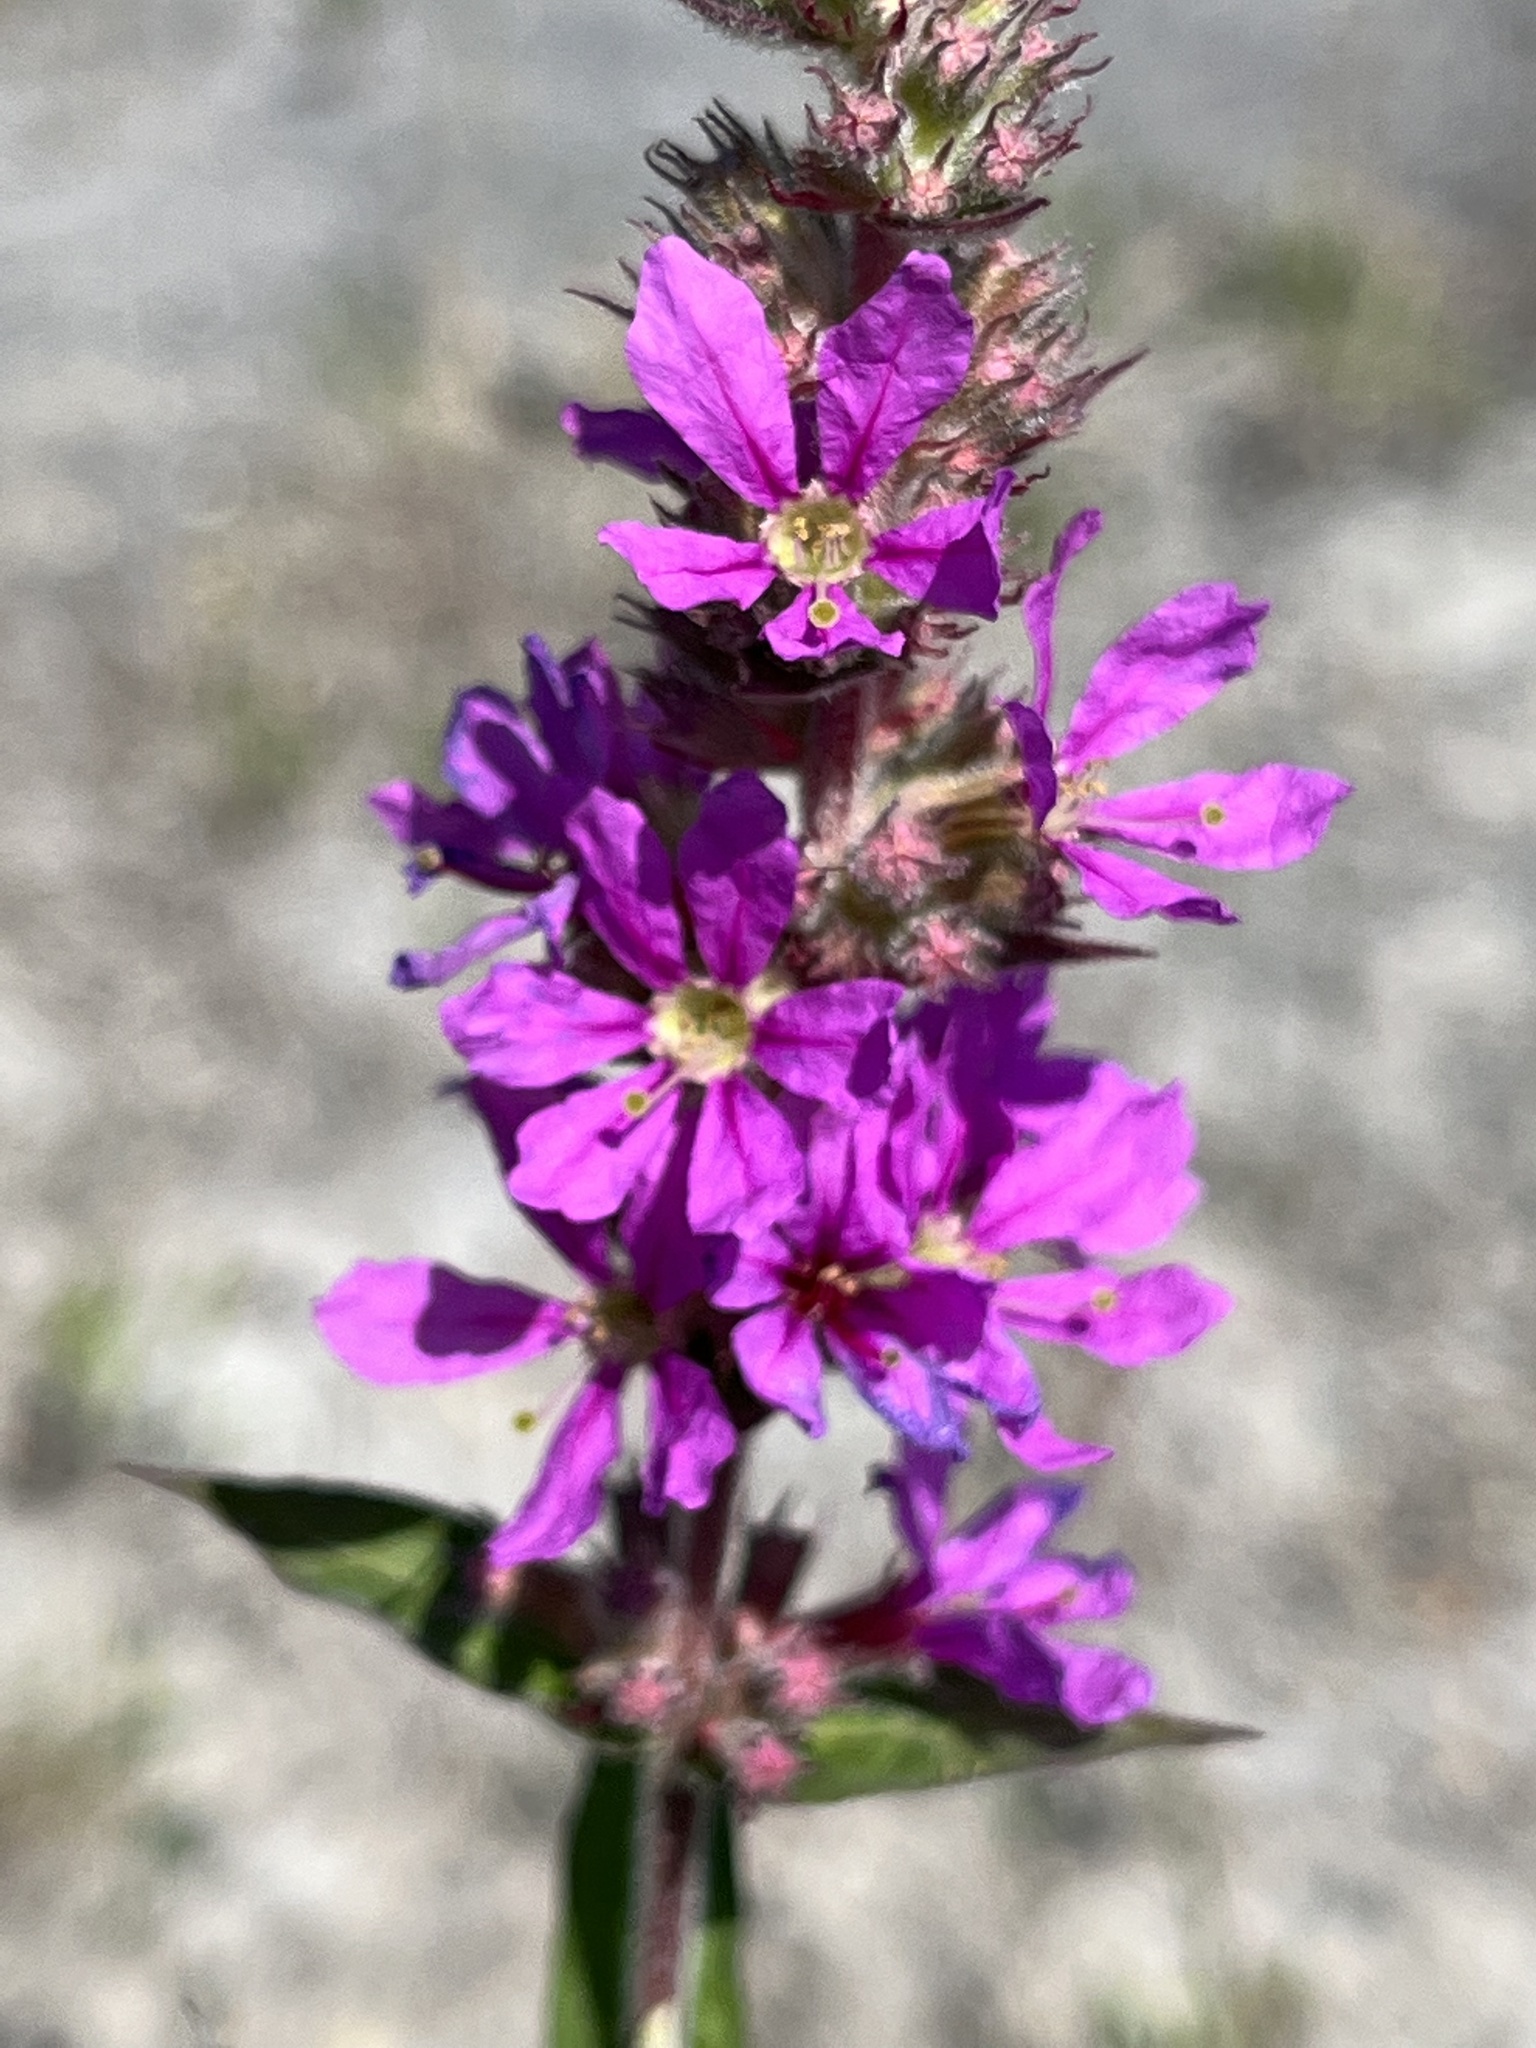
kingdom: Plantae
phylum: Tracheophyta
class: Magnoliopsida
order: Myrtales
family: Lythraceae
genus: Lythrum
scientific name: Lythrum salicaria
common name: Purple loosestrife
